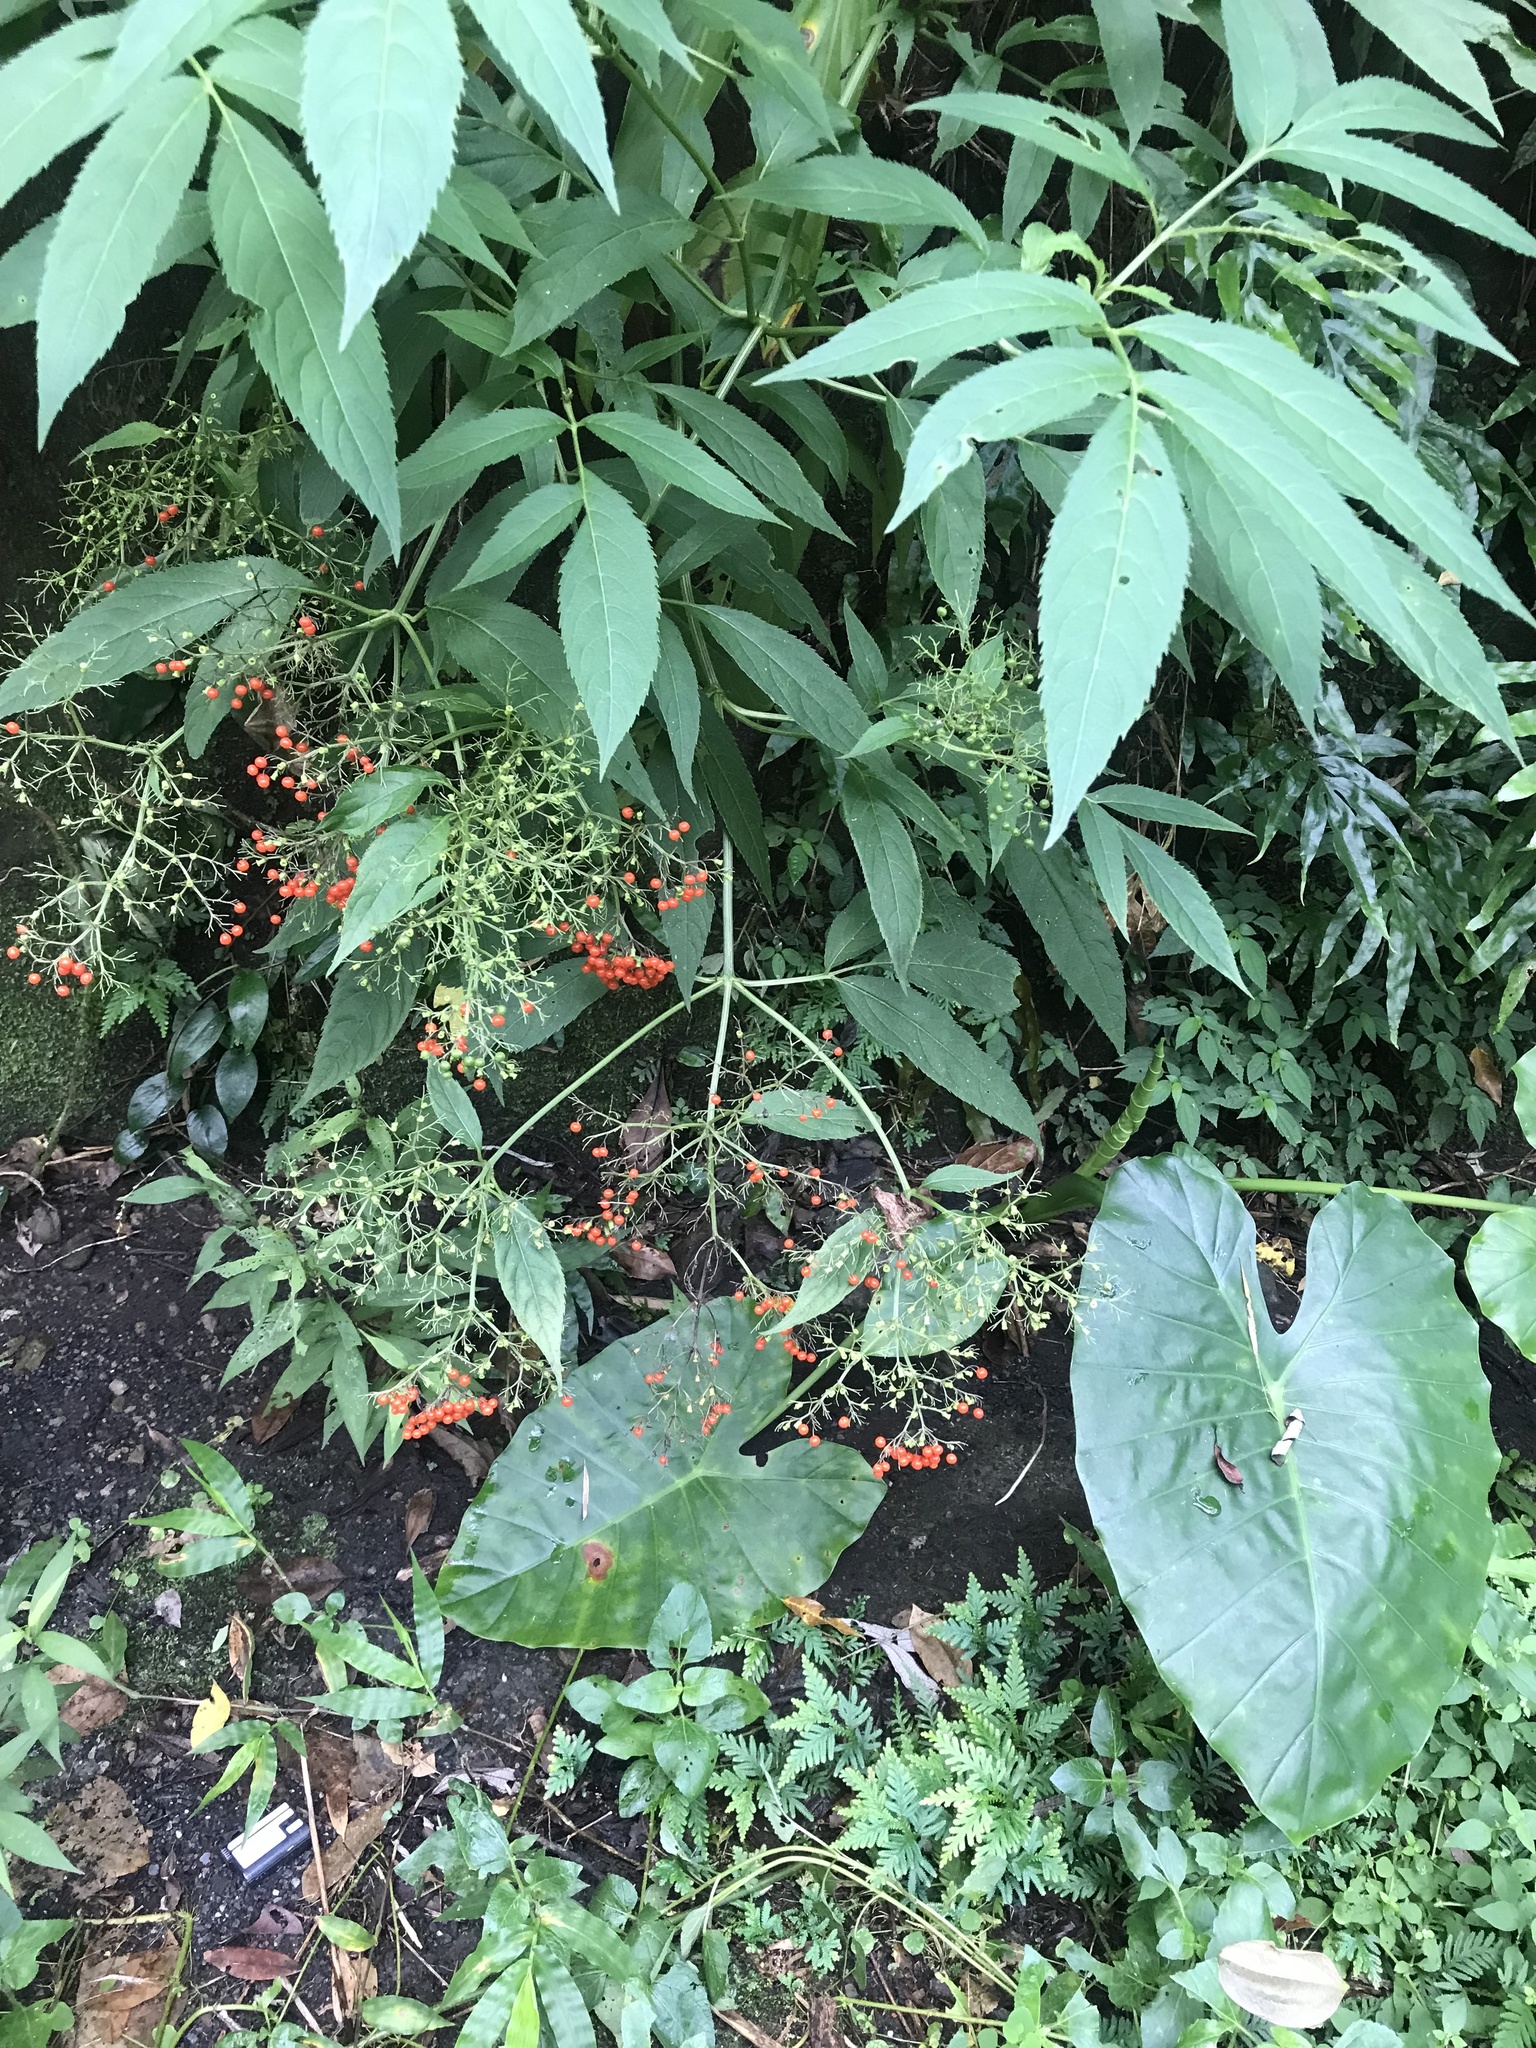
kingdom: Plantae
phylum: Tracheophyta
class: Magnoliopsida
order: Dipsacales
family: Viburnaceae
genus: Sambucus
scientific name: Sambucus javanica
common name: Chinese elder
